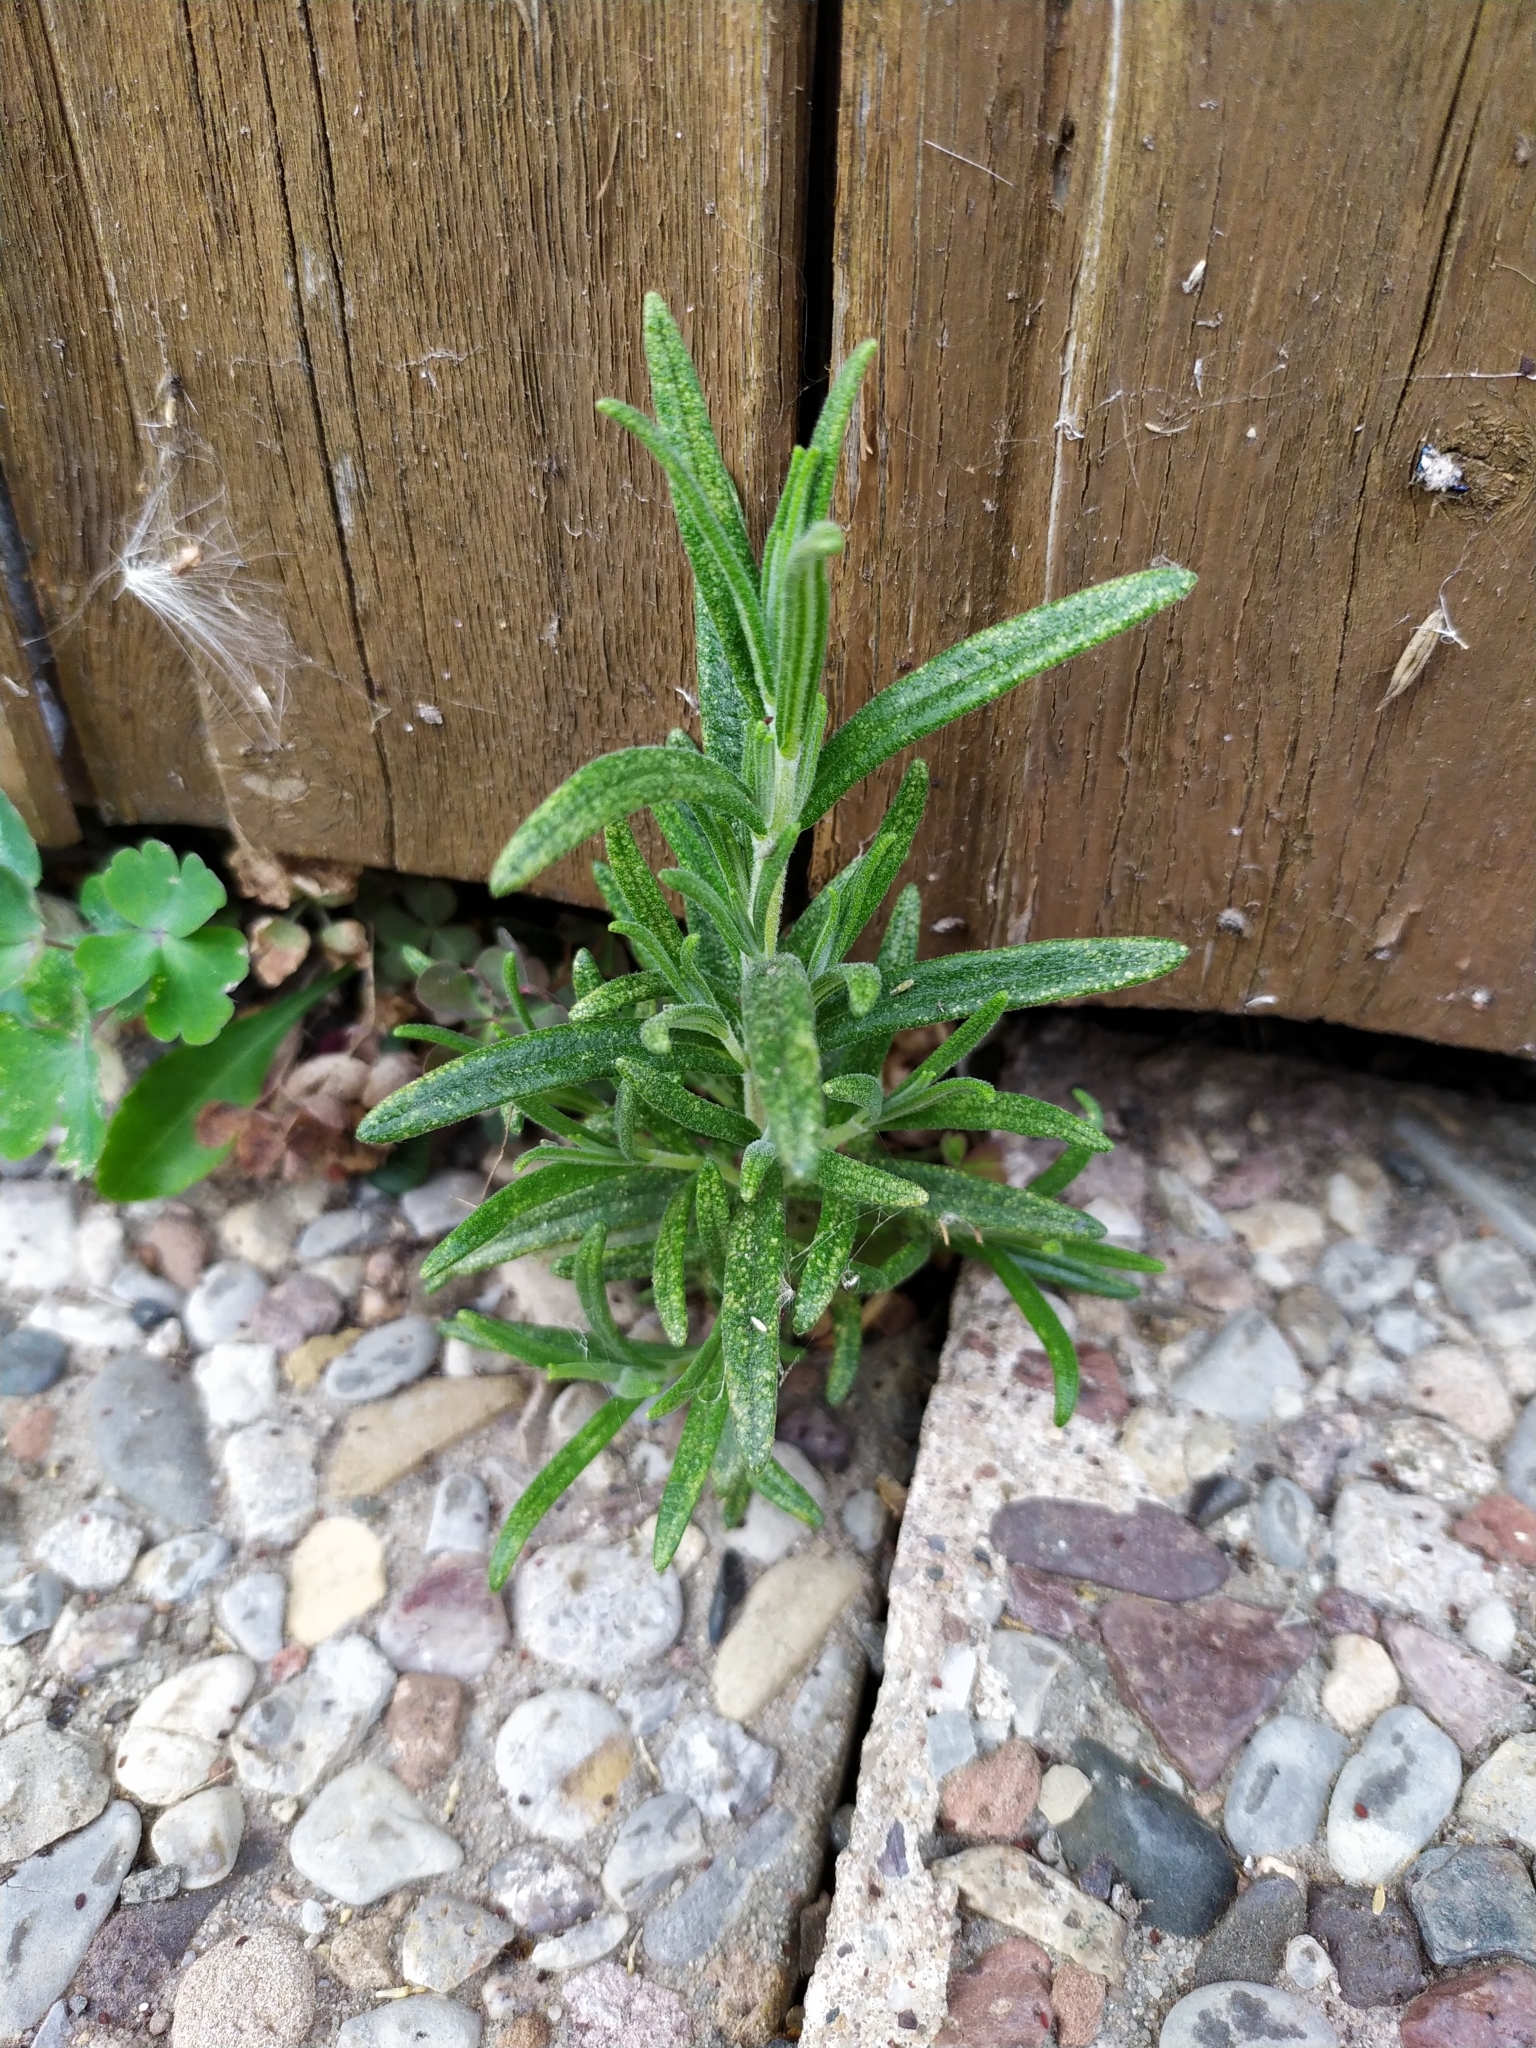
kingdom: Plantae
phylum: Tracheophyta
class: Magnoliopsida
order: Lamiales
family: Lamiaceae
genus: Salvia
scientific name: Salvia rosmarinus
